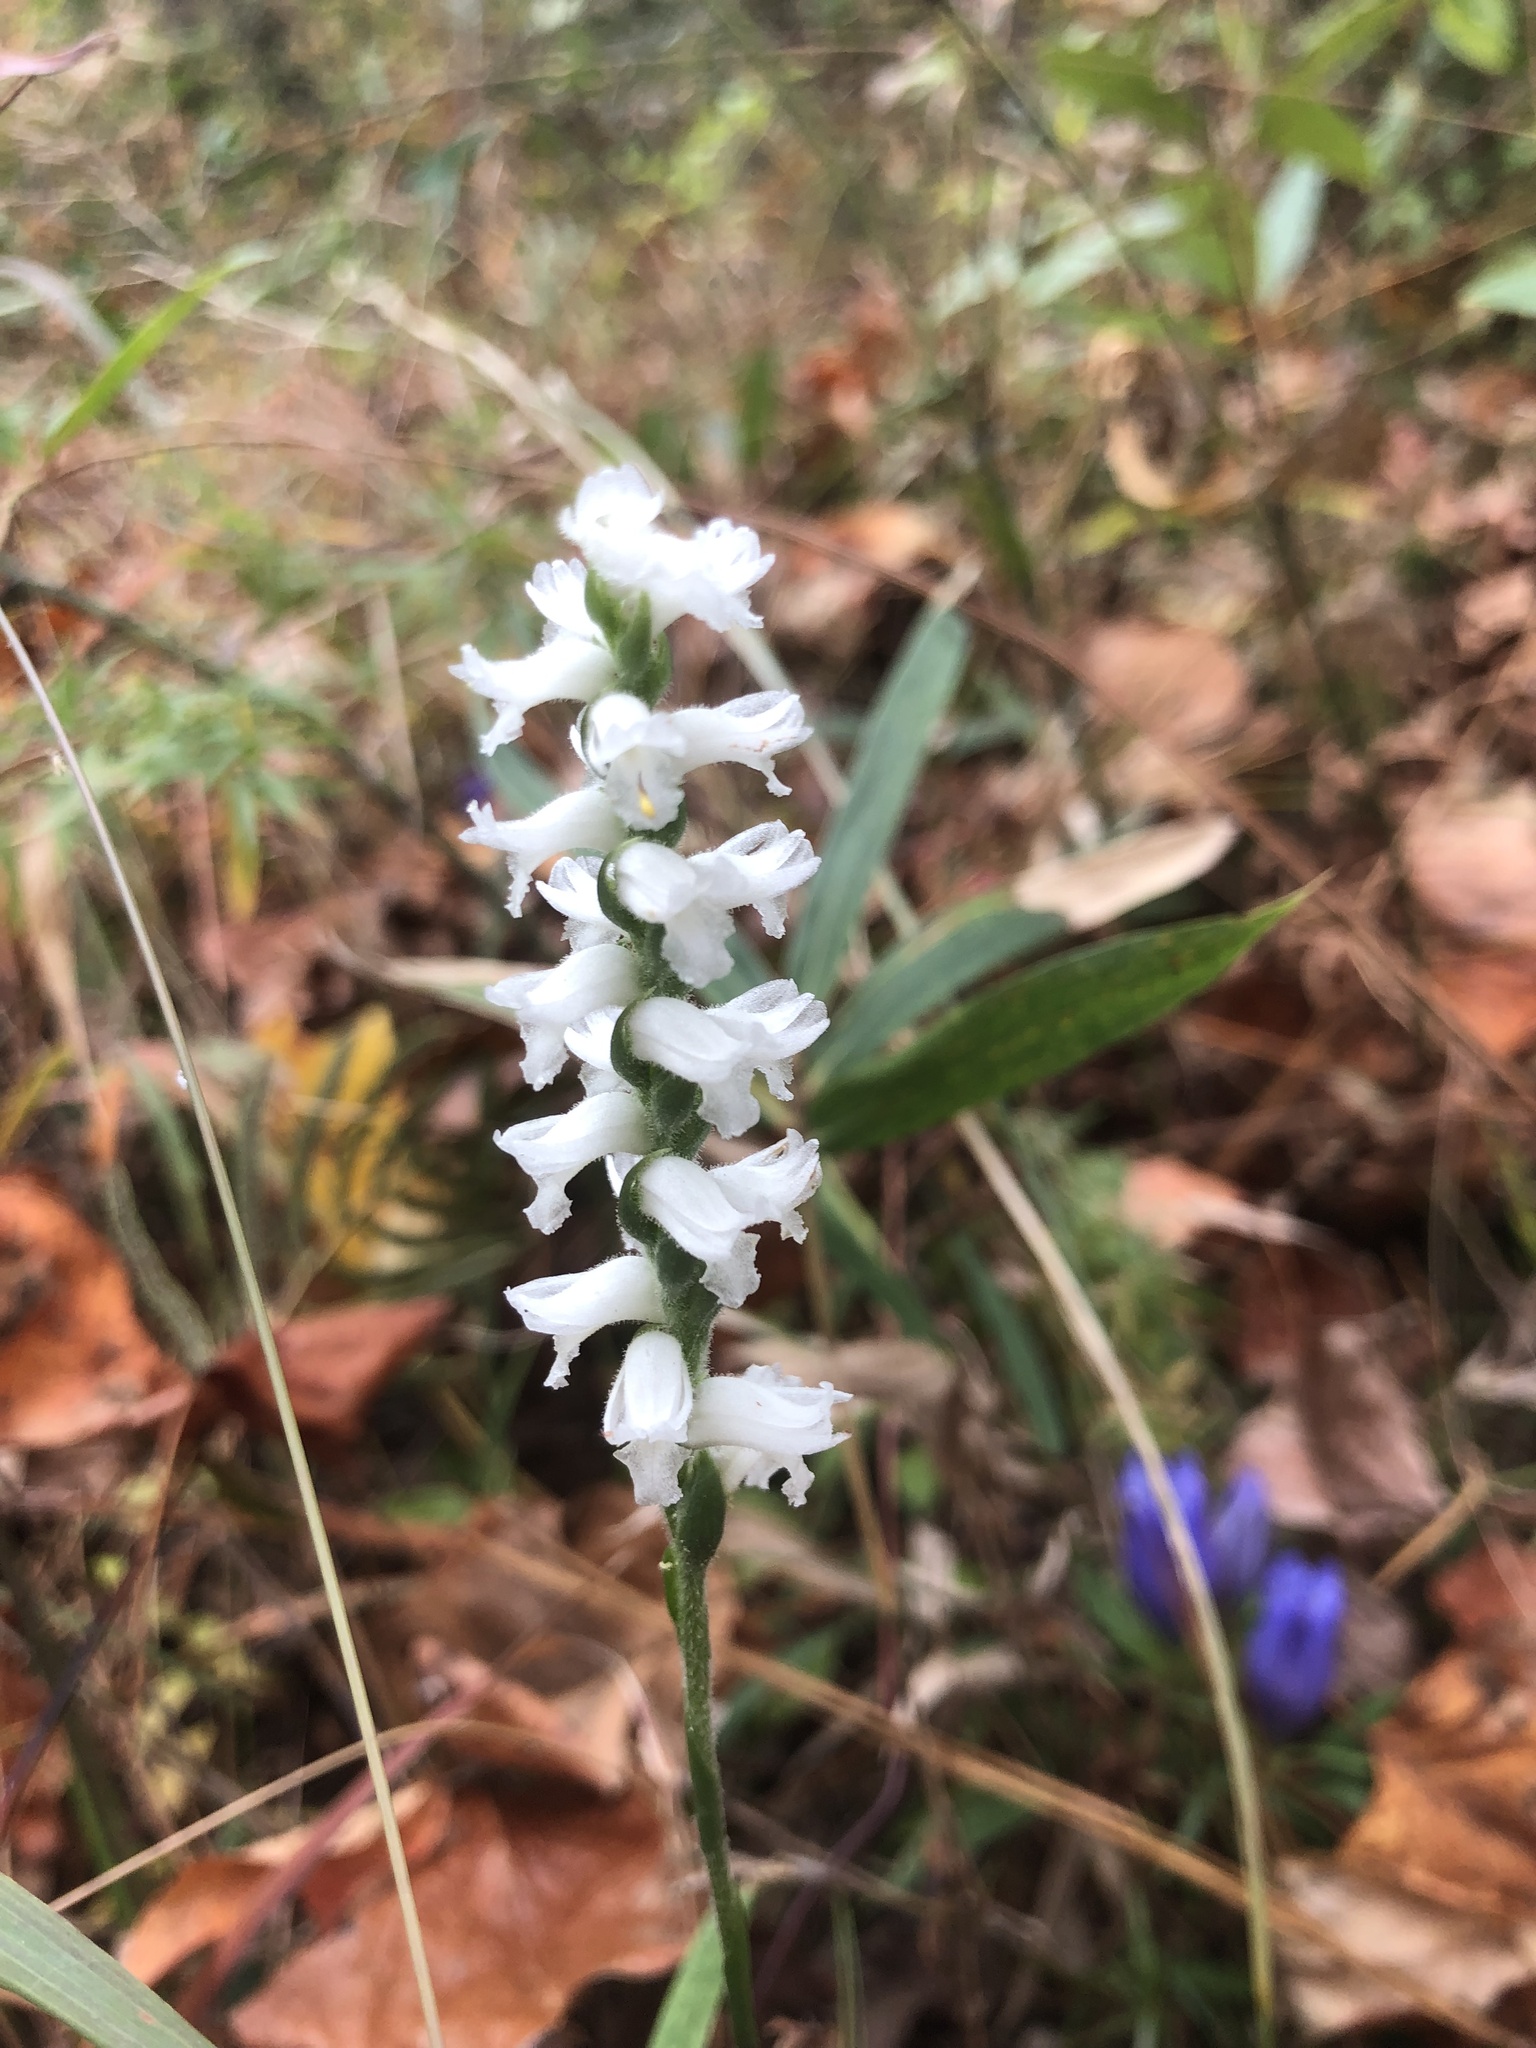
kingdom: Plantae
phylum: Tracheophyta
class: Liliopsida
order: Asparagales
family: Orchidaceae
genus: Spiranthes
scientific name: Spiranthes cernua
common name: Dropping ladies'-tresses
